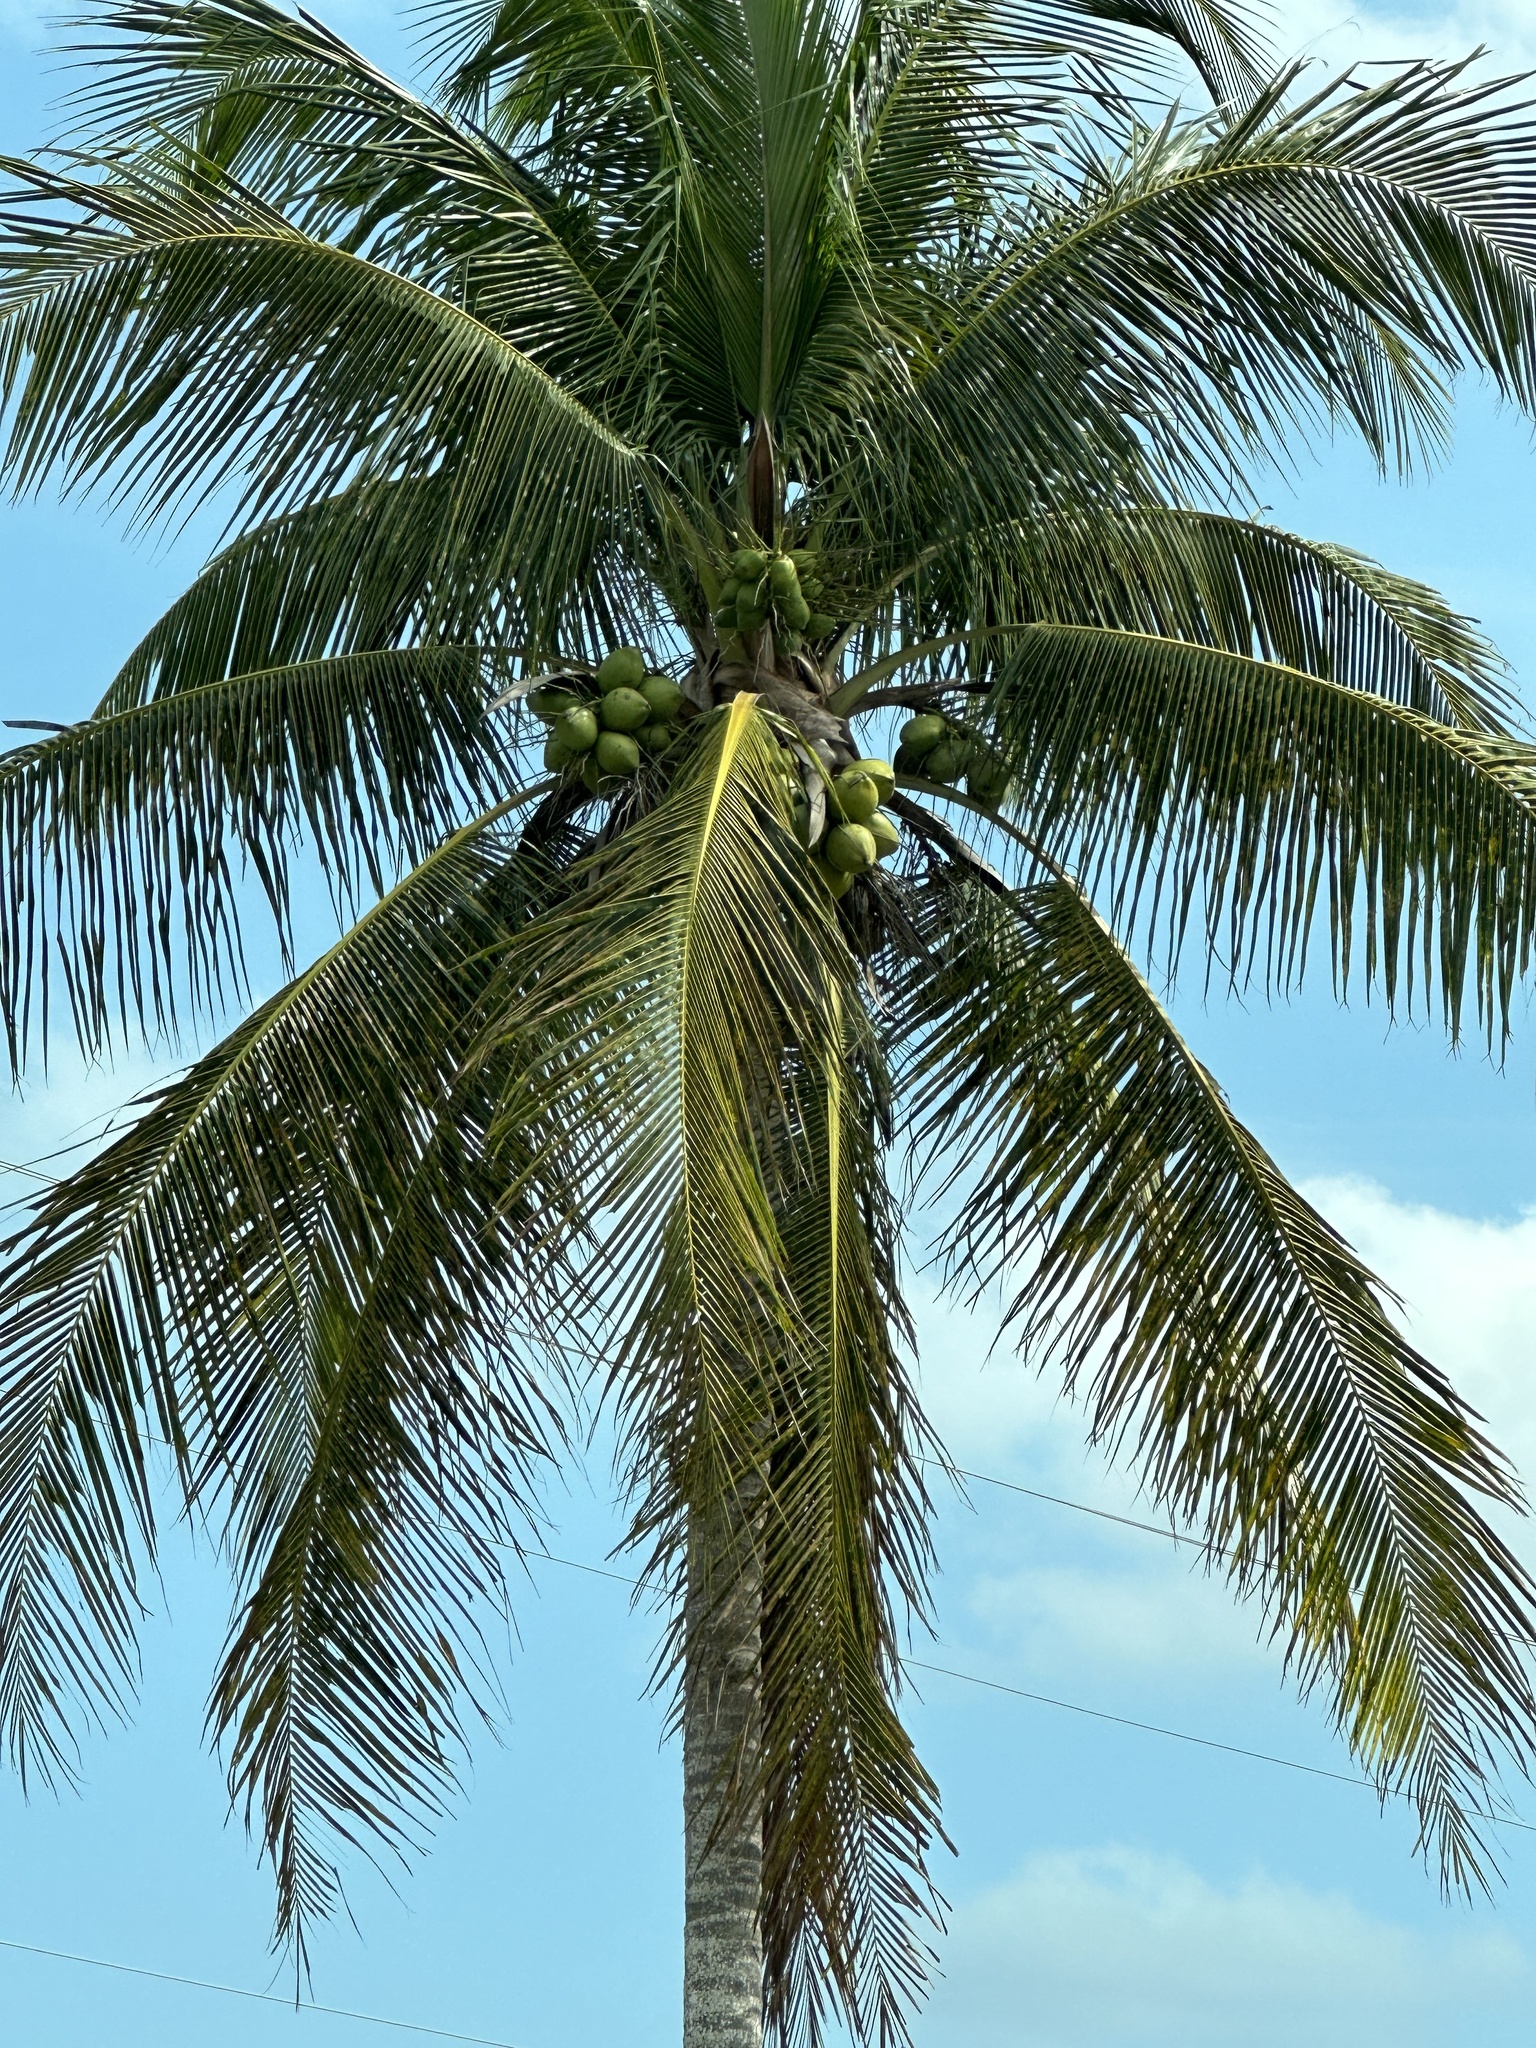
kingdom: Plantae
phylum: Tracheophyta
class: Liliopsida
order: Arecales
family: Arecaceae
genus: Cocos
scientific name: Cocos nucifera
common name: Coconut palm
